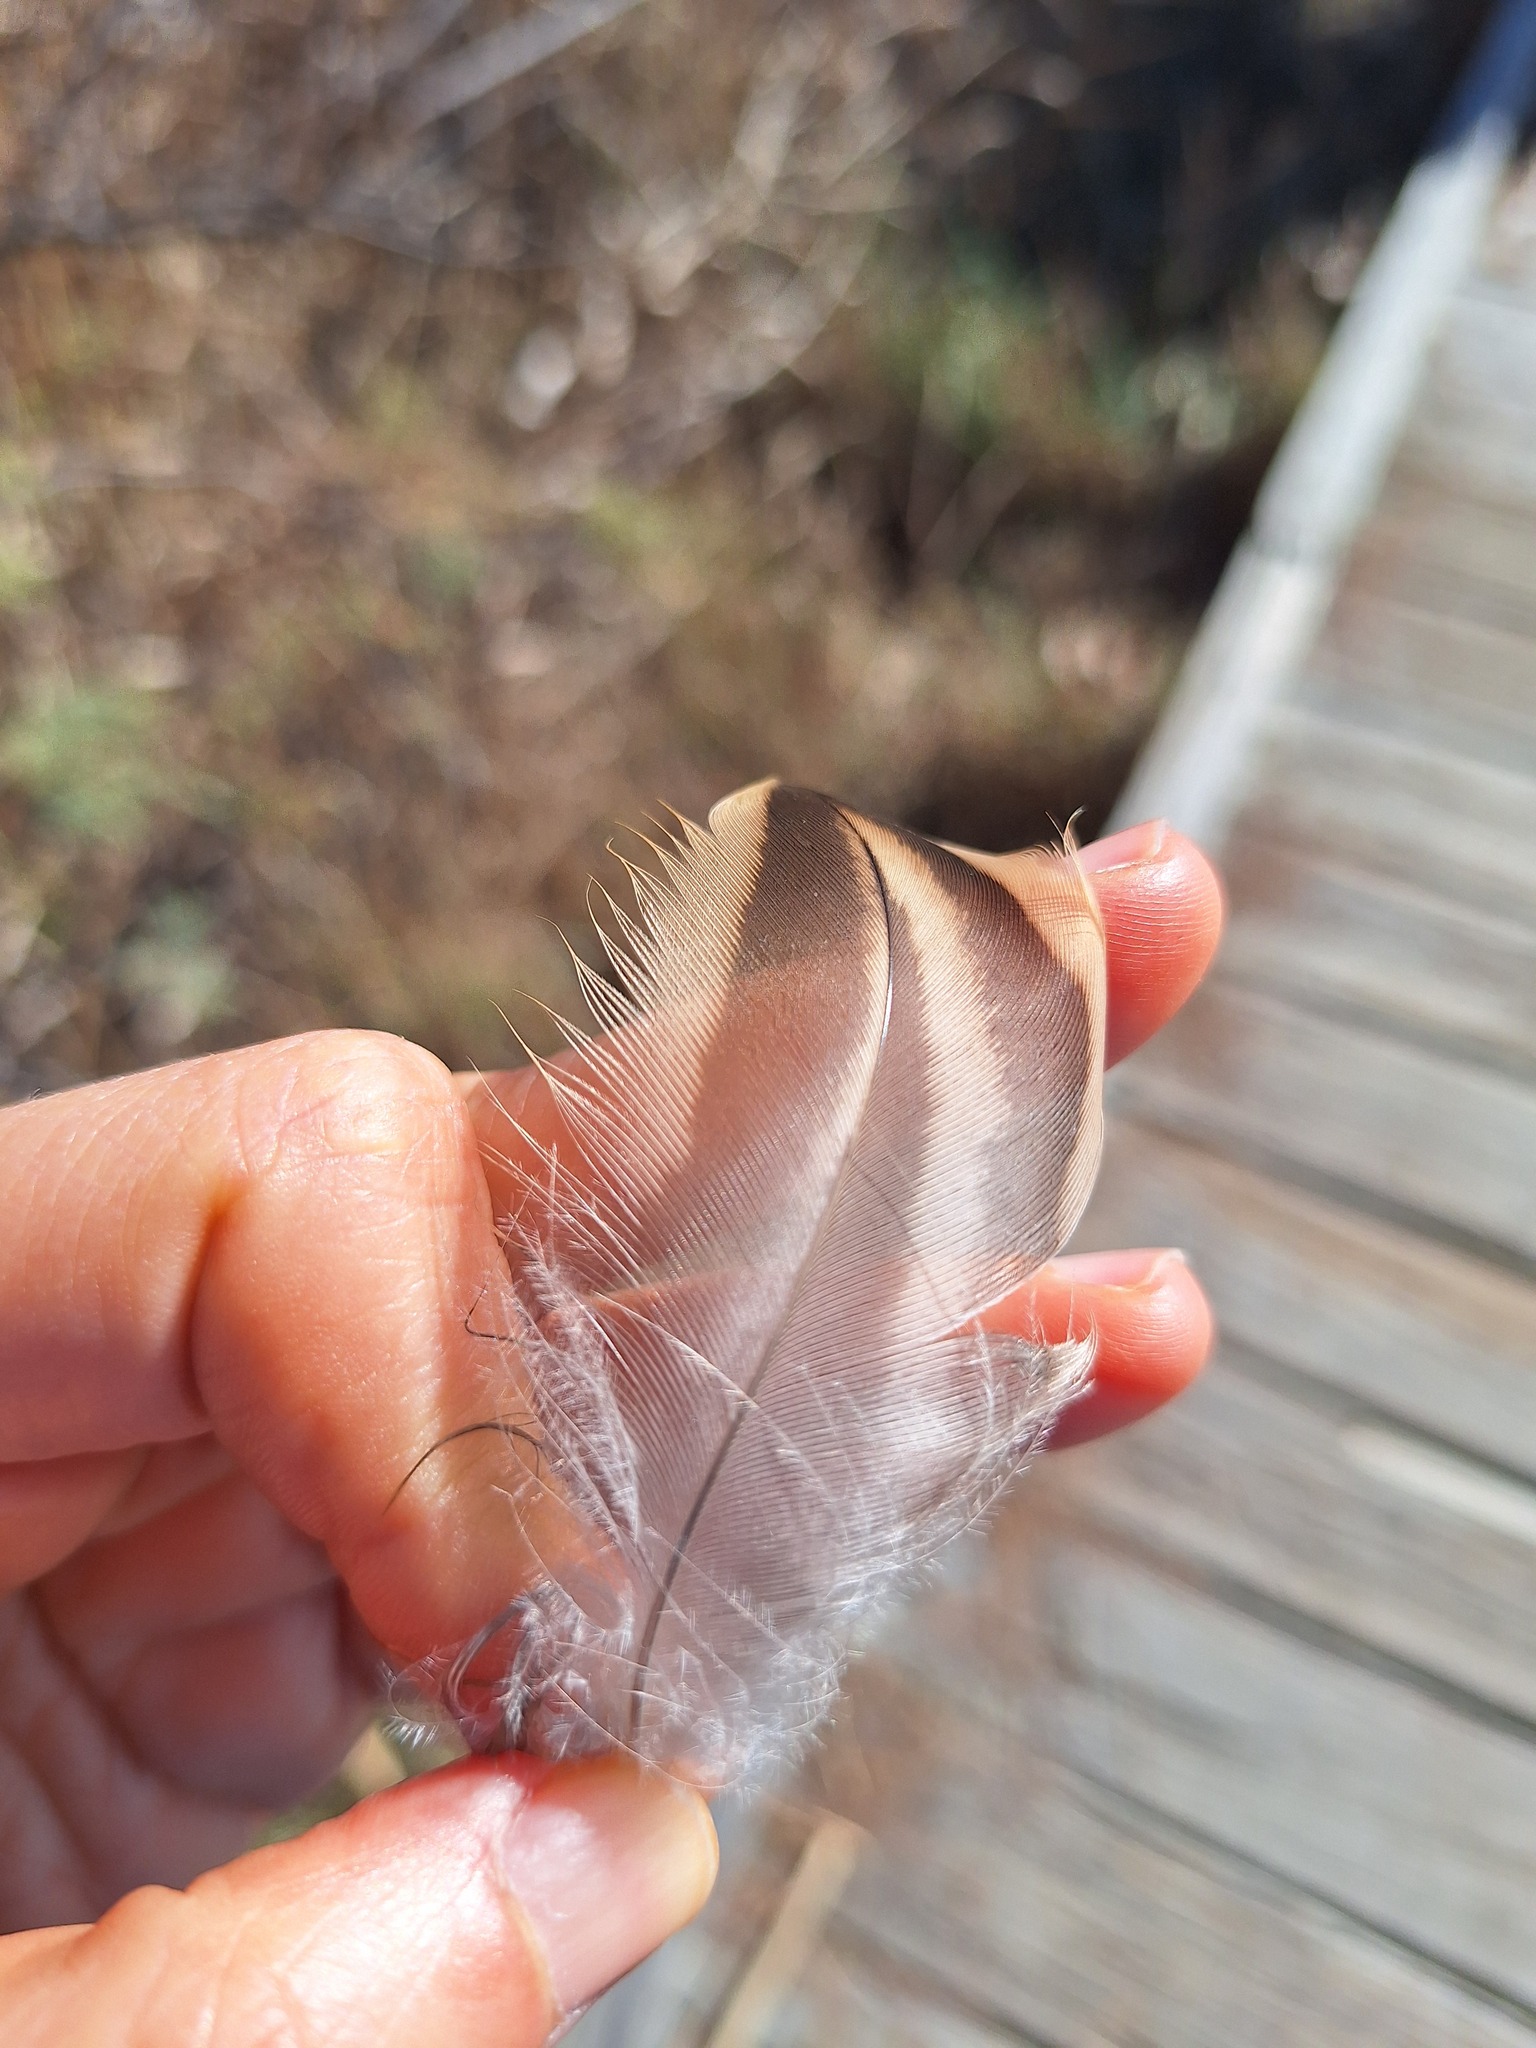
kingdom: Animalia
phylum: Chordata
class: Aves
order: Anseriformes
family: Anatidae
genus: Anas
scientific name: Anas platyrhynchos
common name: Mallard
